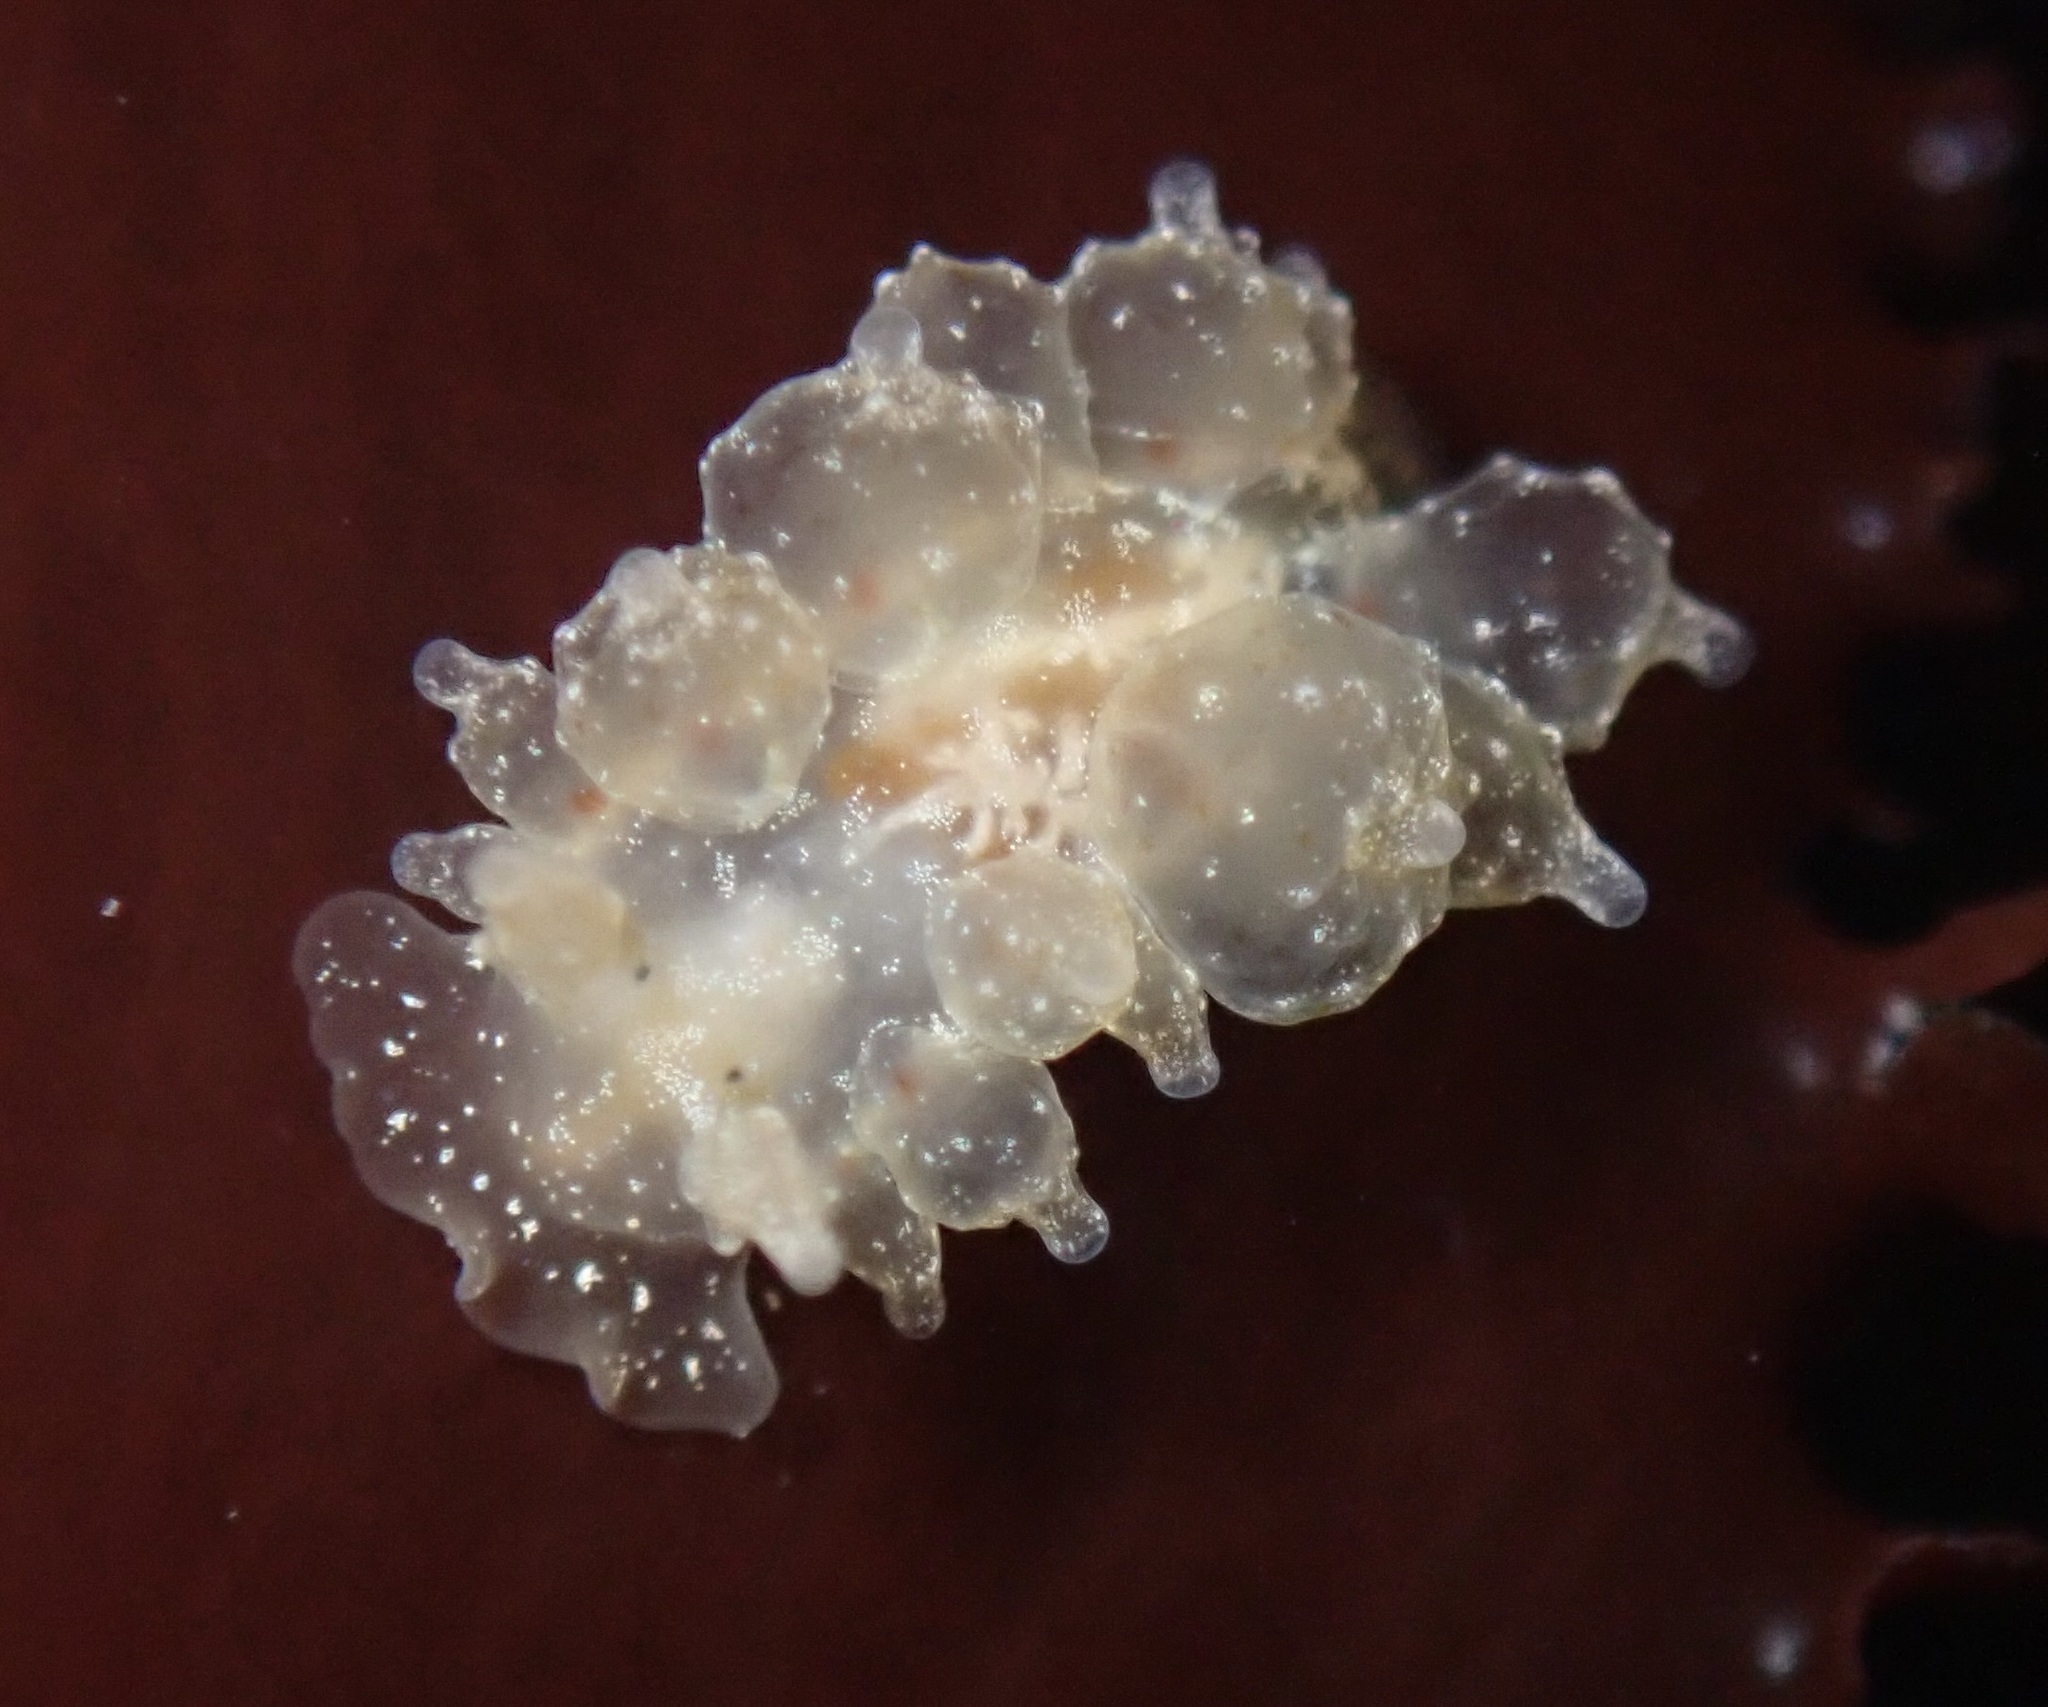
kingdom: Animalia
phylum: Mollusca
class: Gastropoda
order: Nudibranchia
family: Dironidae
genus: Dirona
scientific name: Dirona picta
